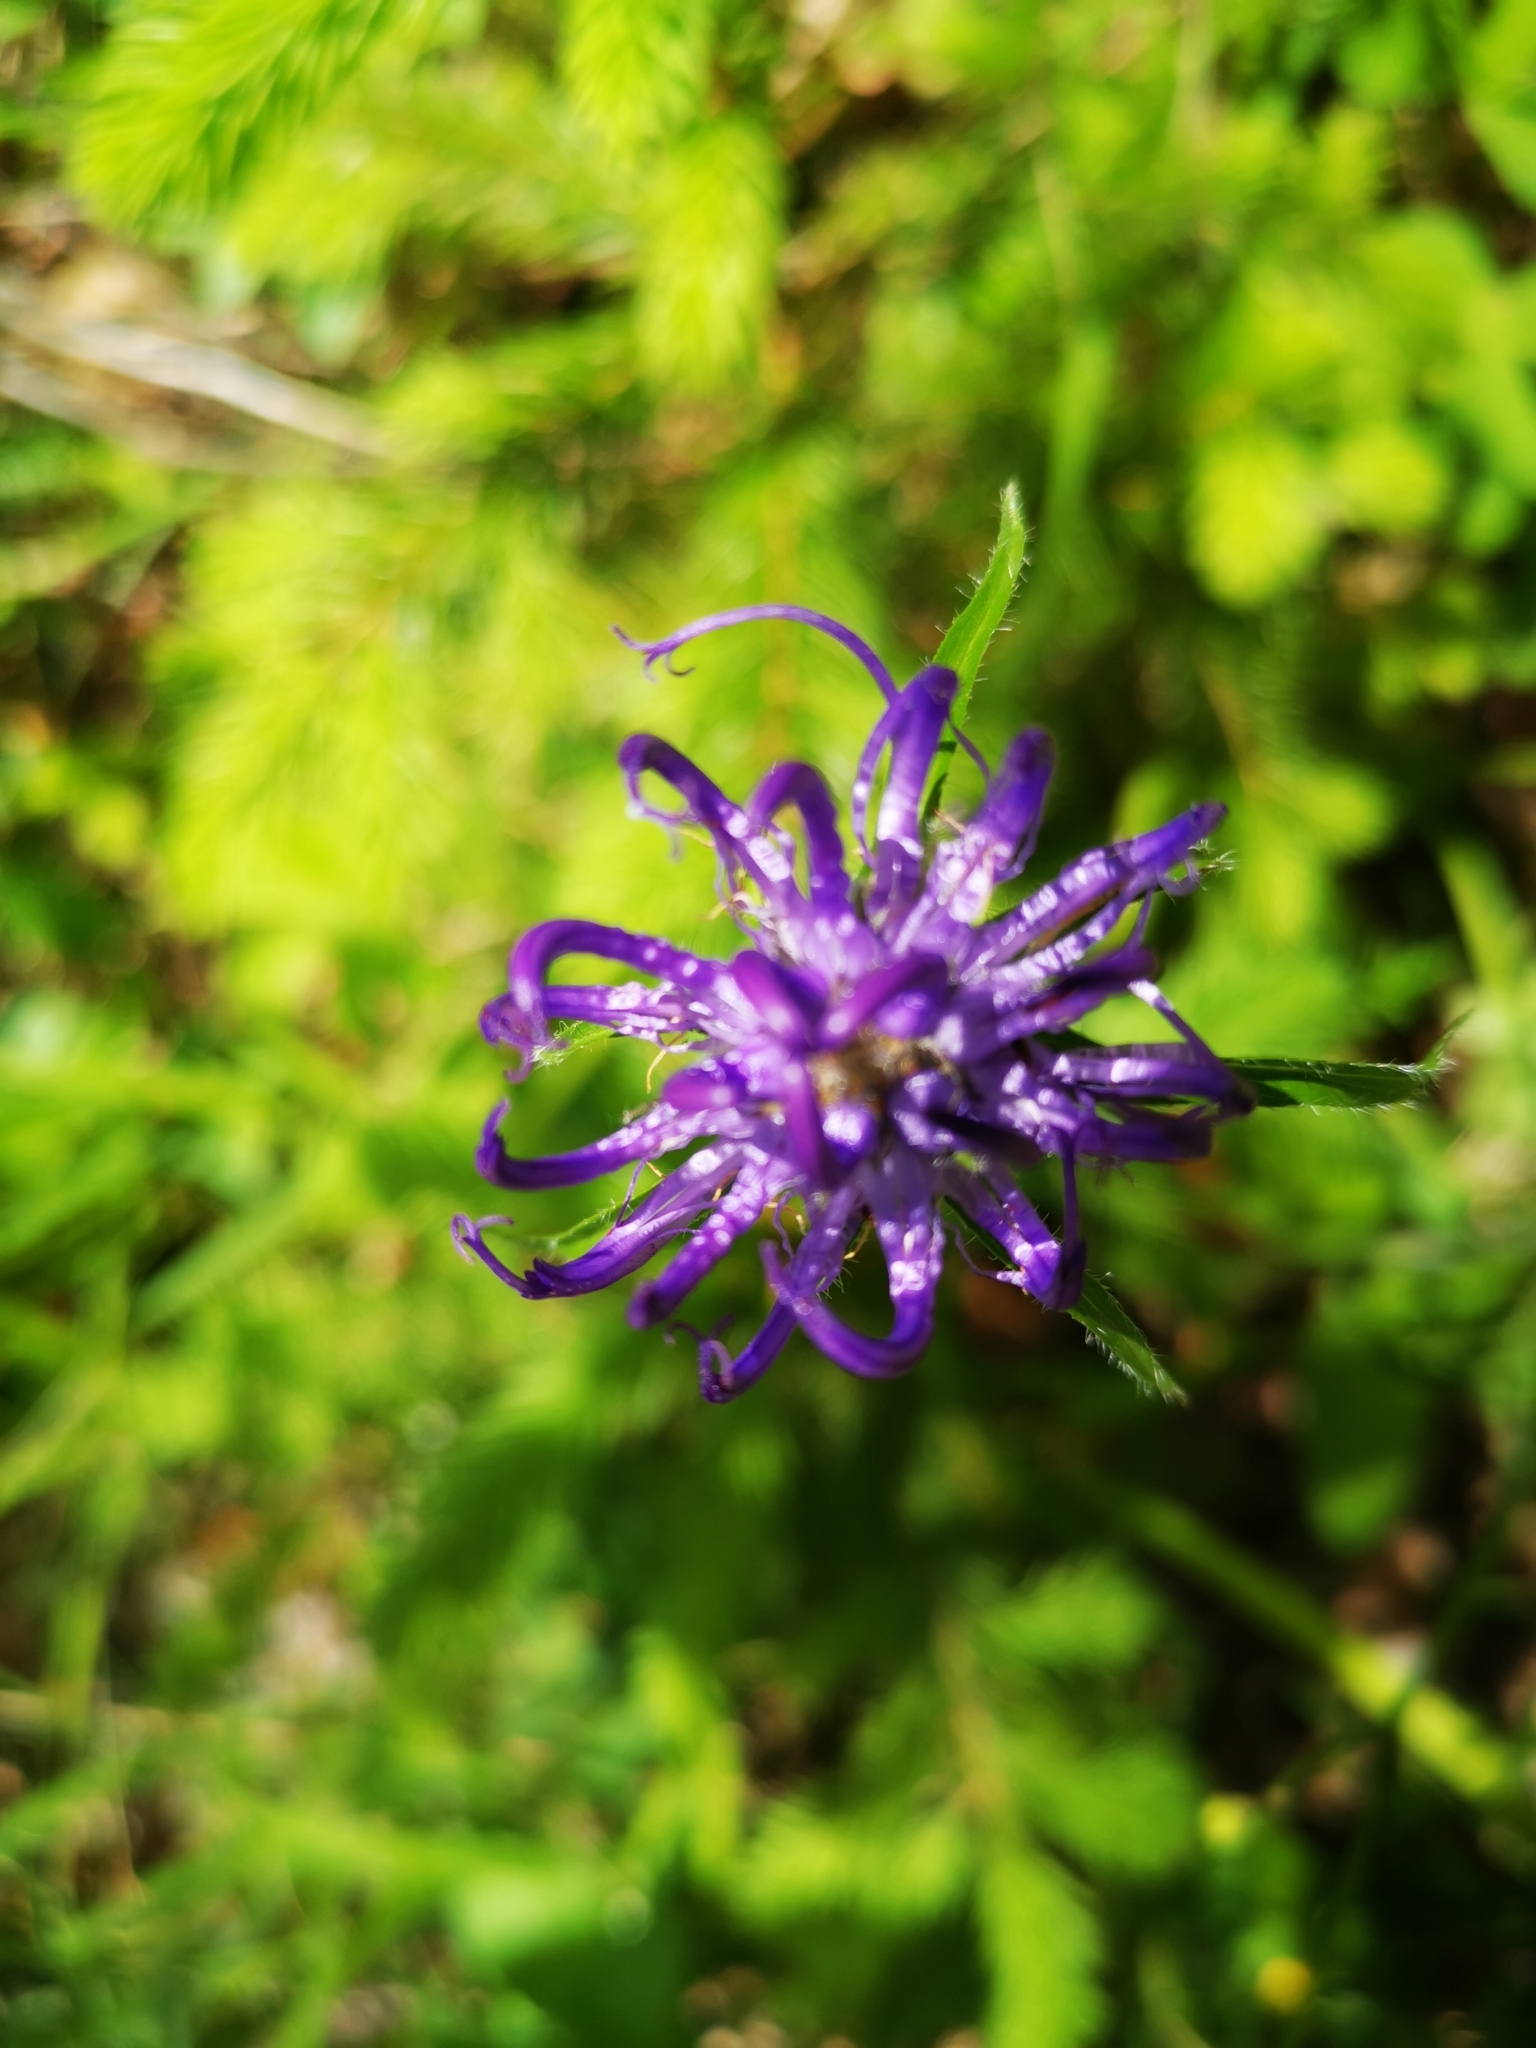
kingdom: Plantae
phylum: Tracheophyta
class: Magnoliopsida
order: Asterales
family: Campanulaceae
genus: Phyteuma
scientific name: Phyteuma orbiculare
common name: Round-headed rampion
